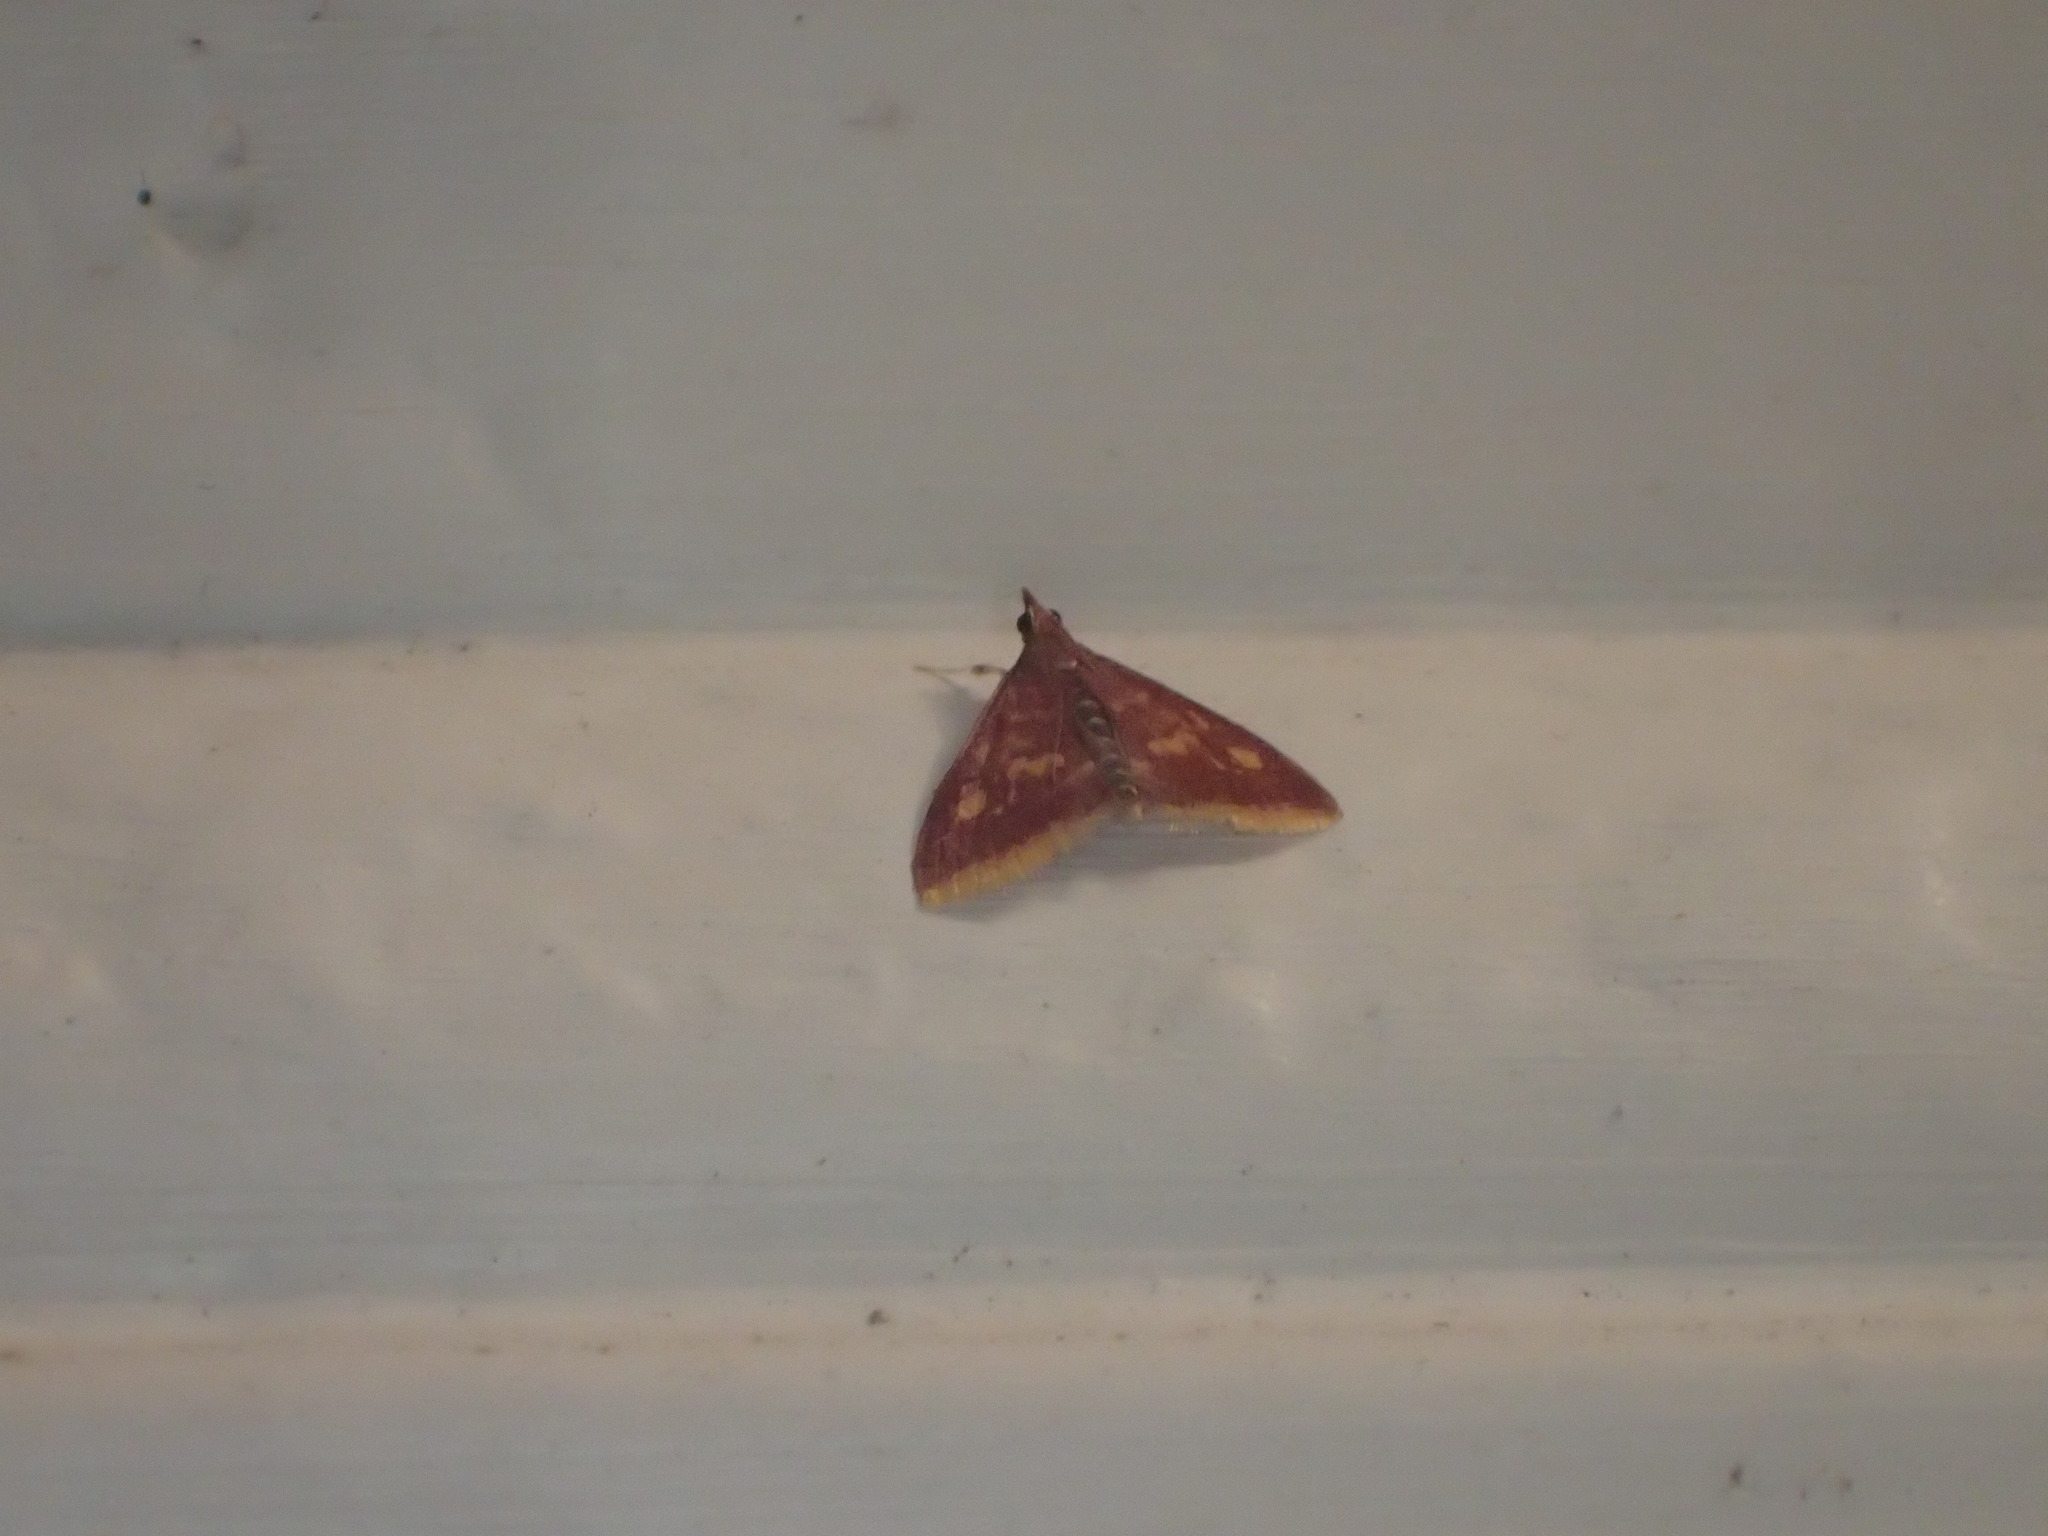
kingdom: Animalia
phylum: Arthropoda
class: Insecta
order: Lepidoptera
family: Crambidae
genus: Pyrausta
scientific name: Pyrausta acrionalis
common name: Mint-loving pyrausta moth
